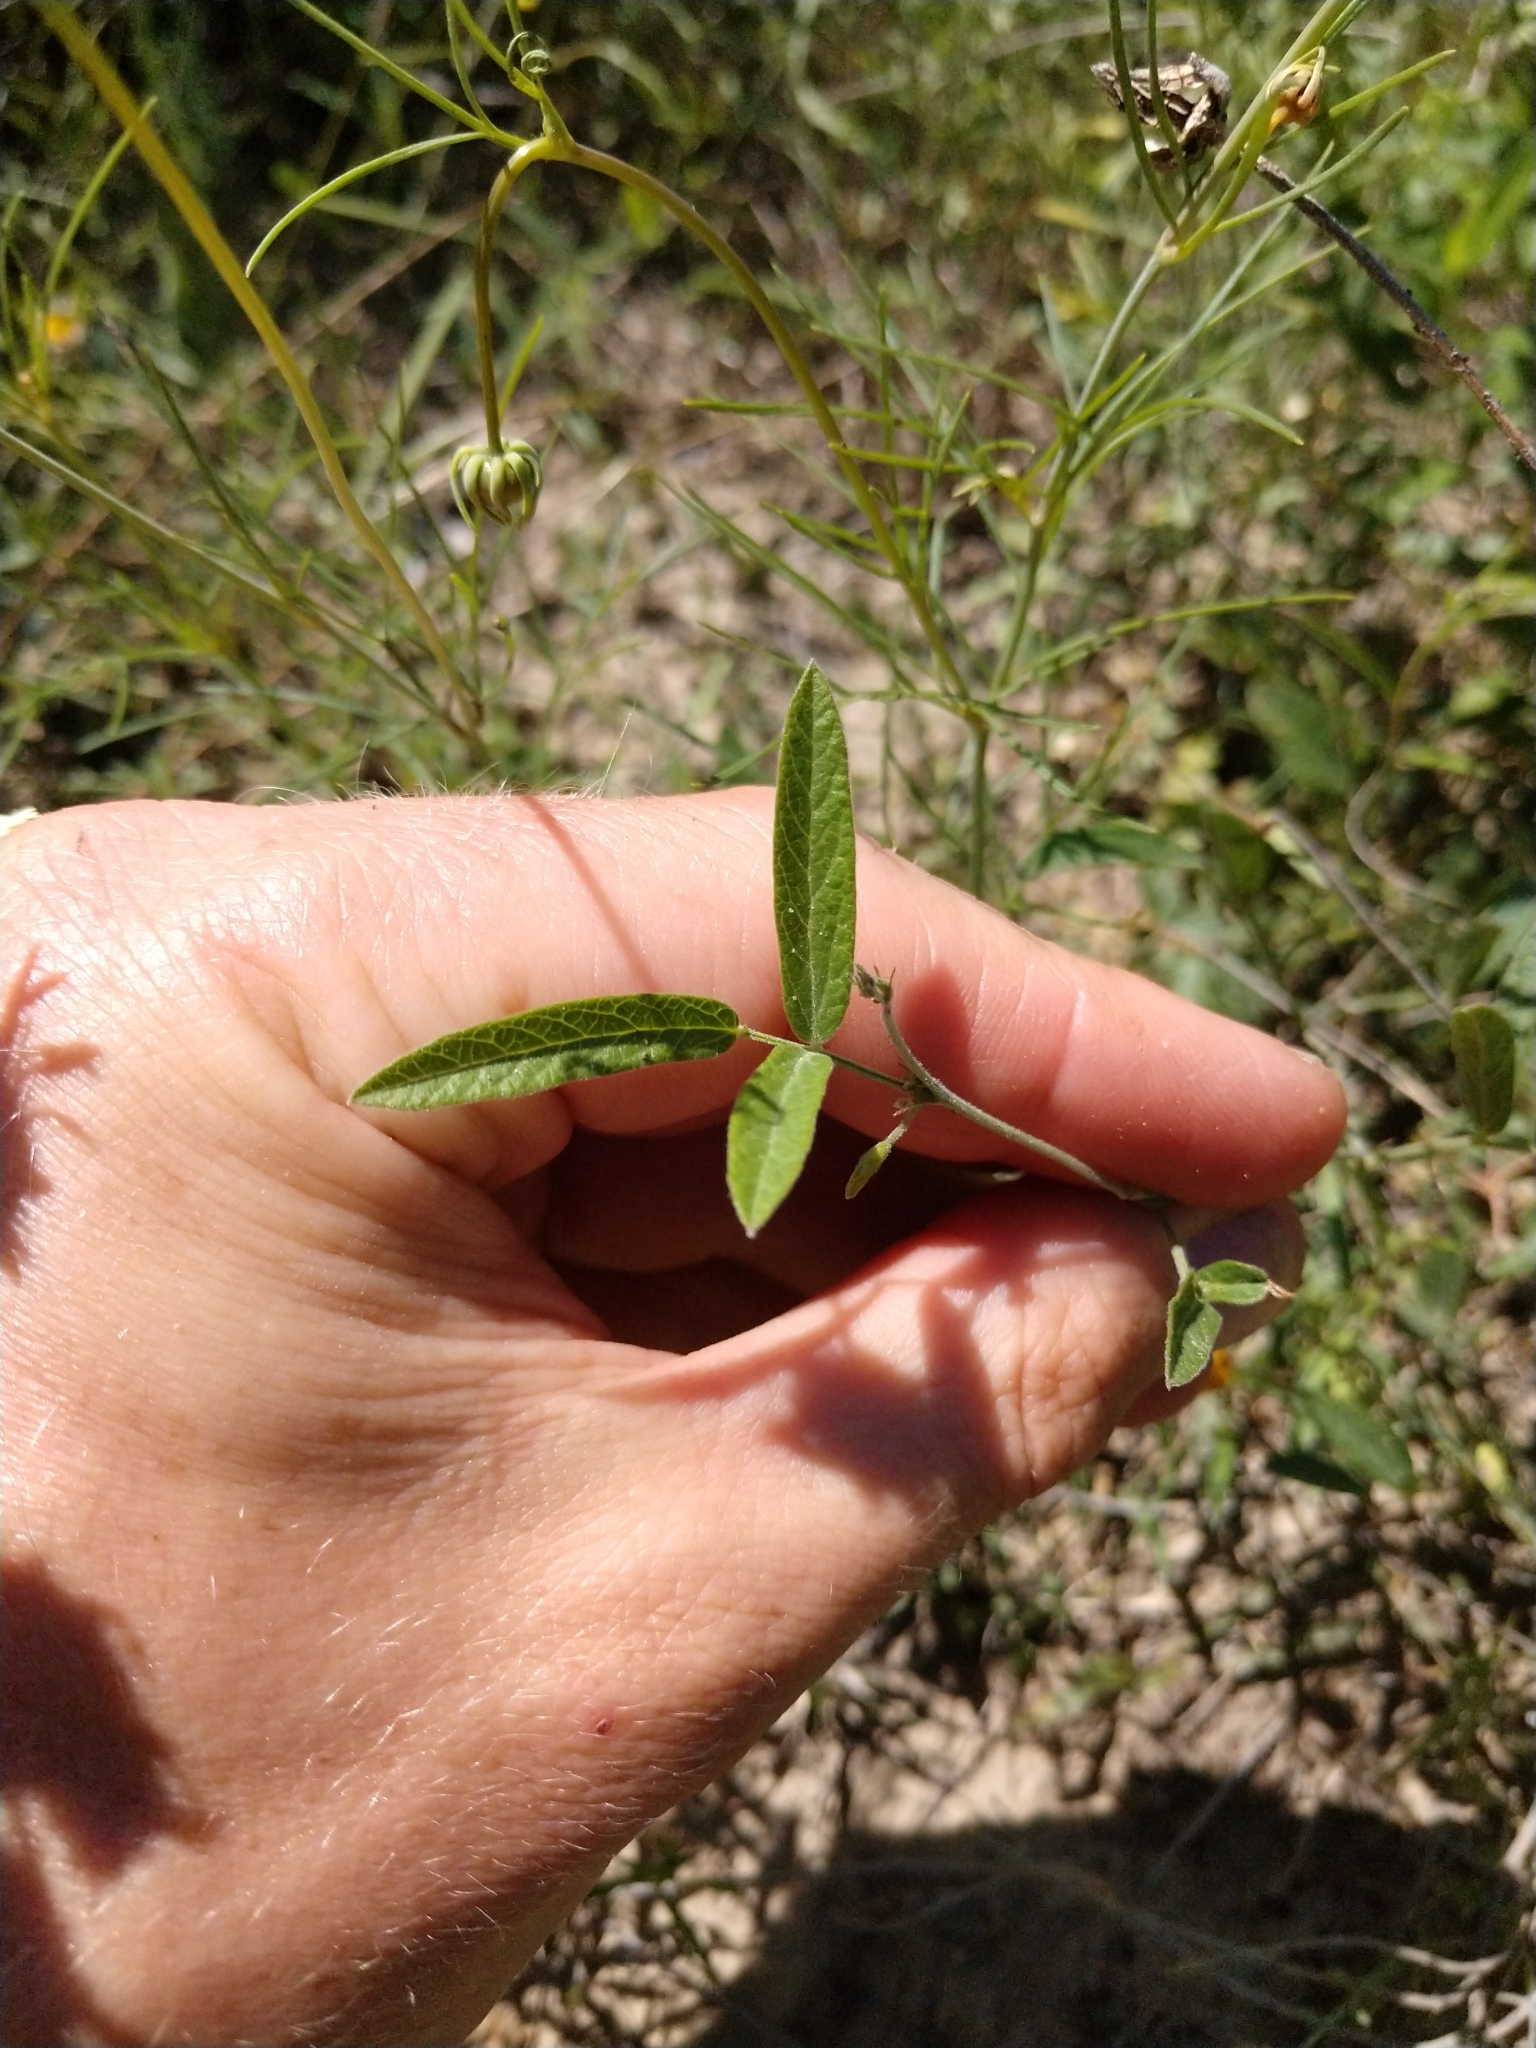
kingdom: Plantae
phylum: Tracheophyta
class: Magnoliopsida
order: Fabales
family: Fabaceae
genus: Rhynchosia
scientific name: Rhynchosia senna
